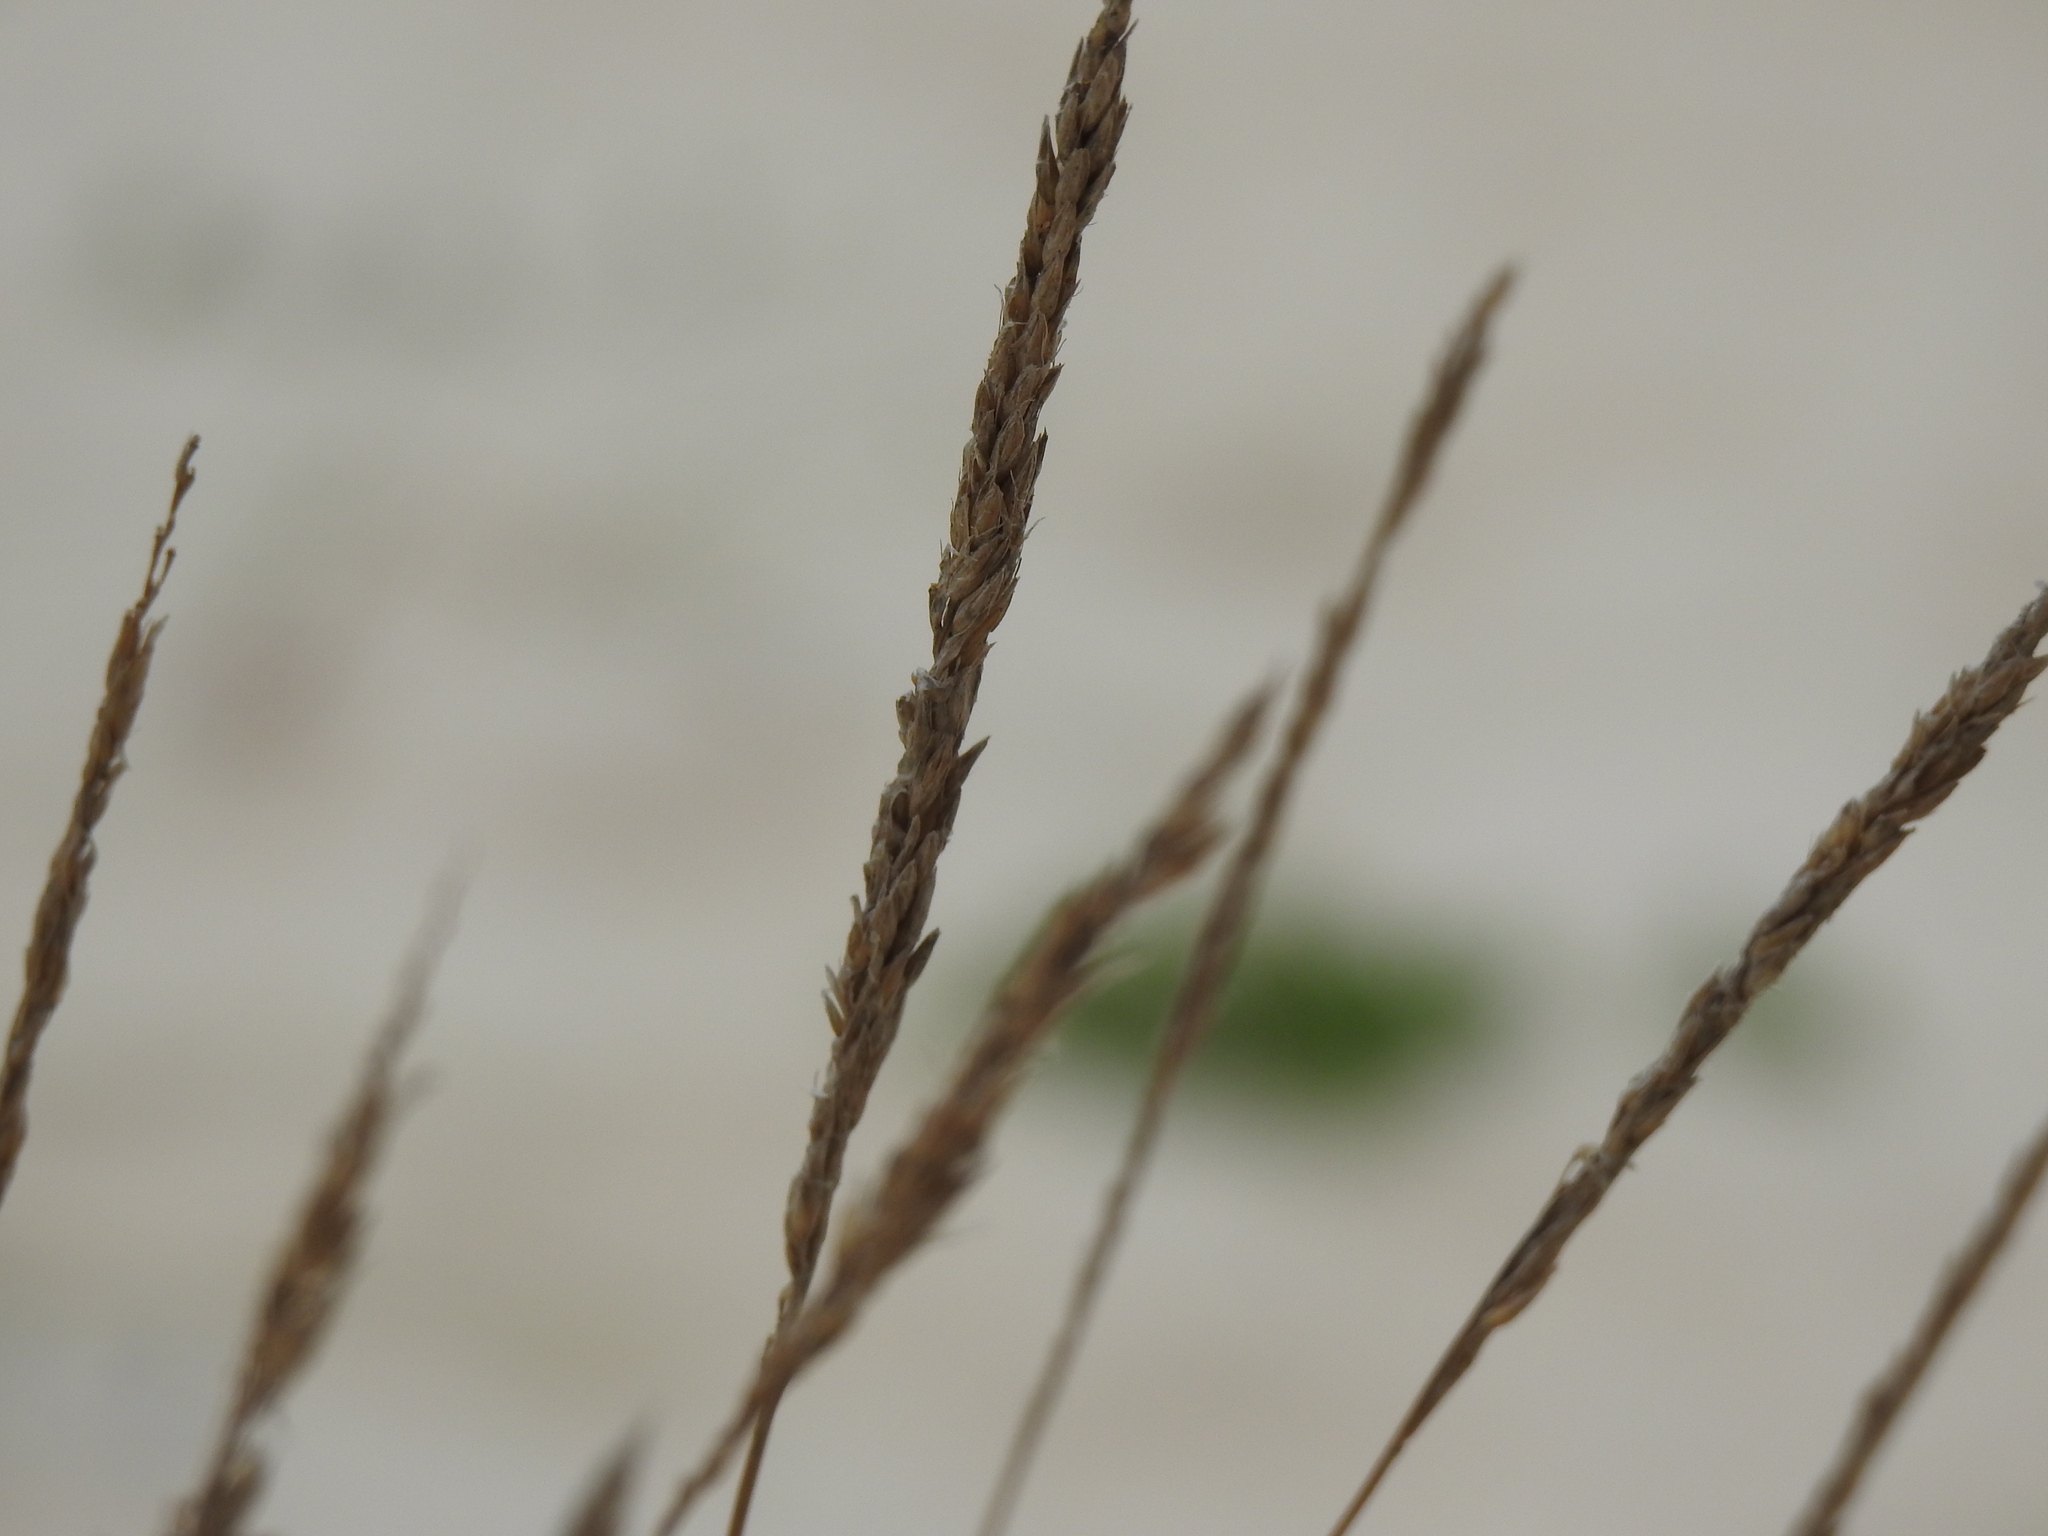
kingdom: Plantae
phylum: Tracheophyta
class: Liliopsida
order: Poales
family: Poaceae
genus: Calamagrostis
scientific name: Calamagrostis arenaria
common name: European beachgrass
